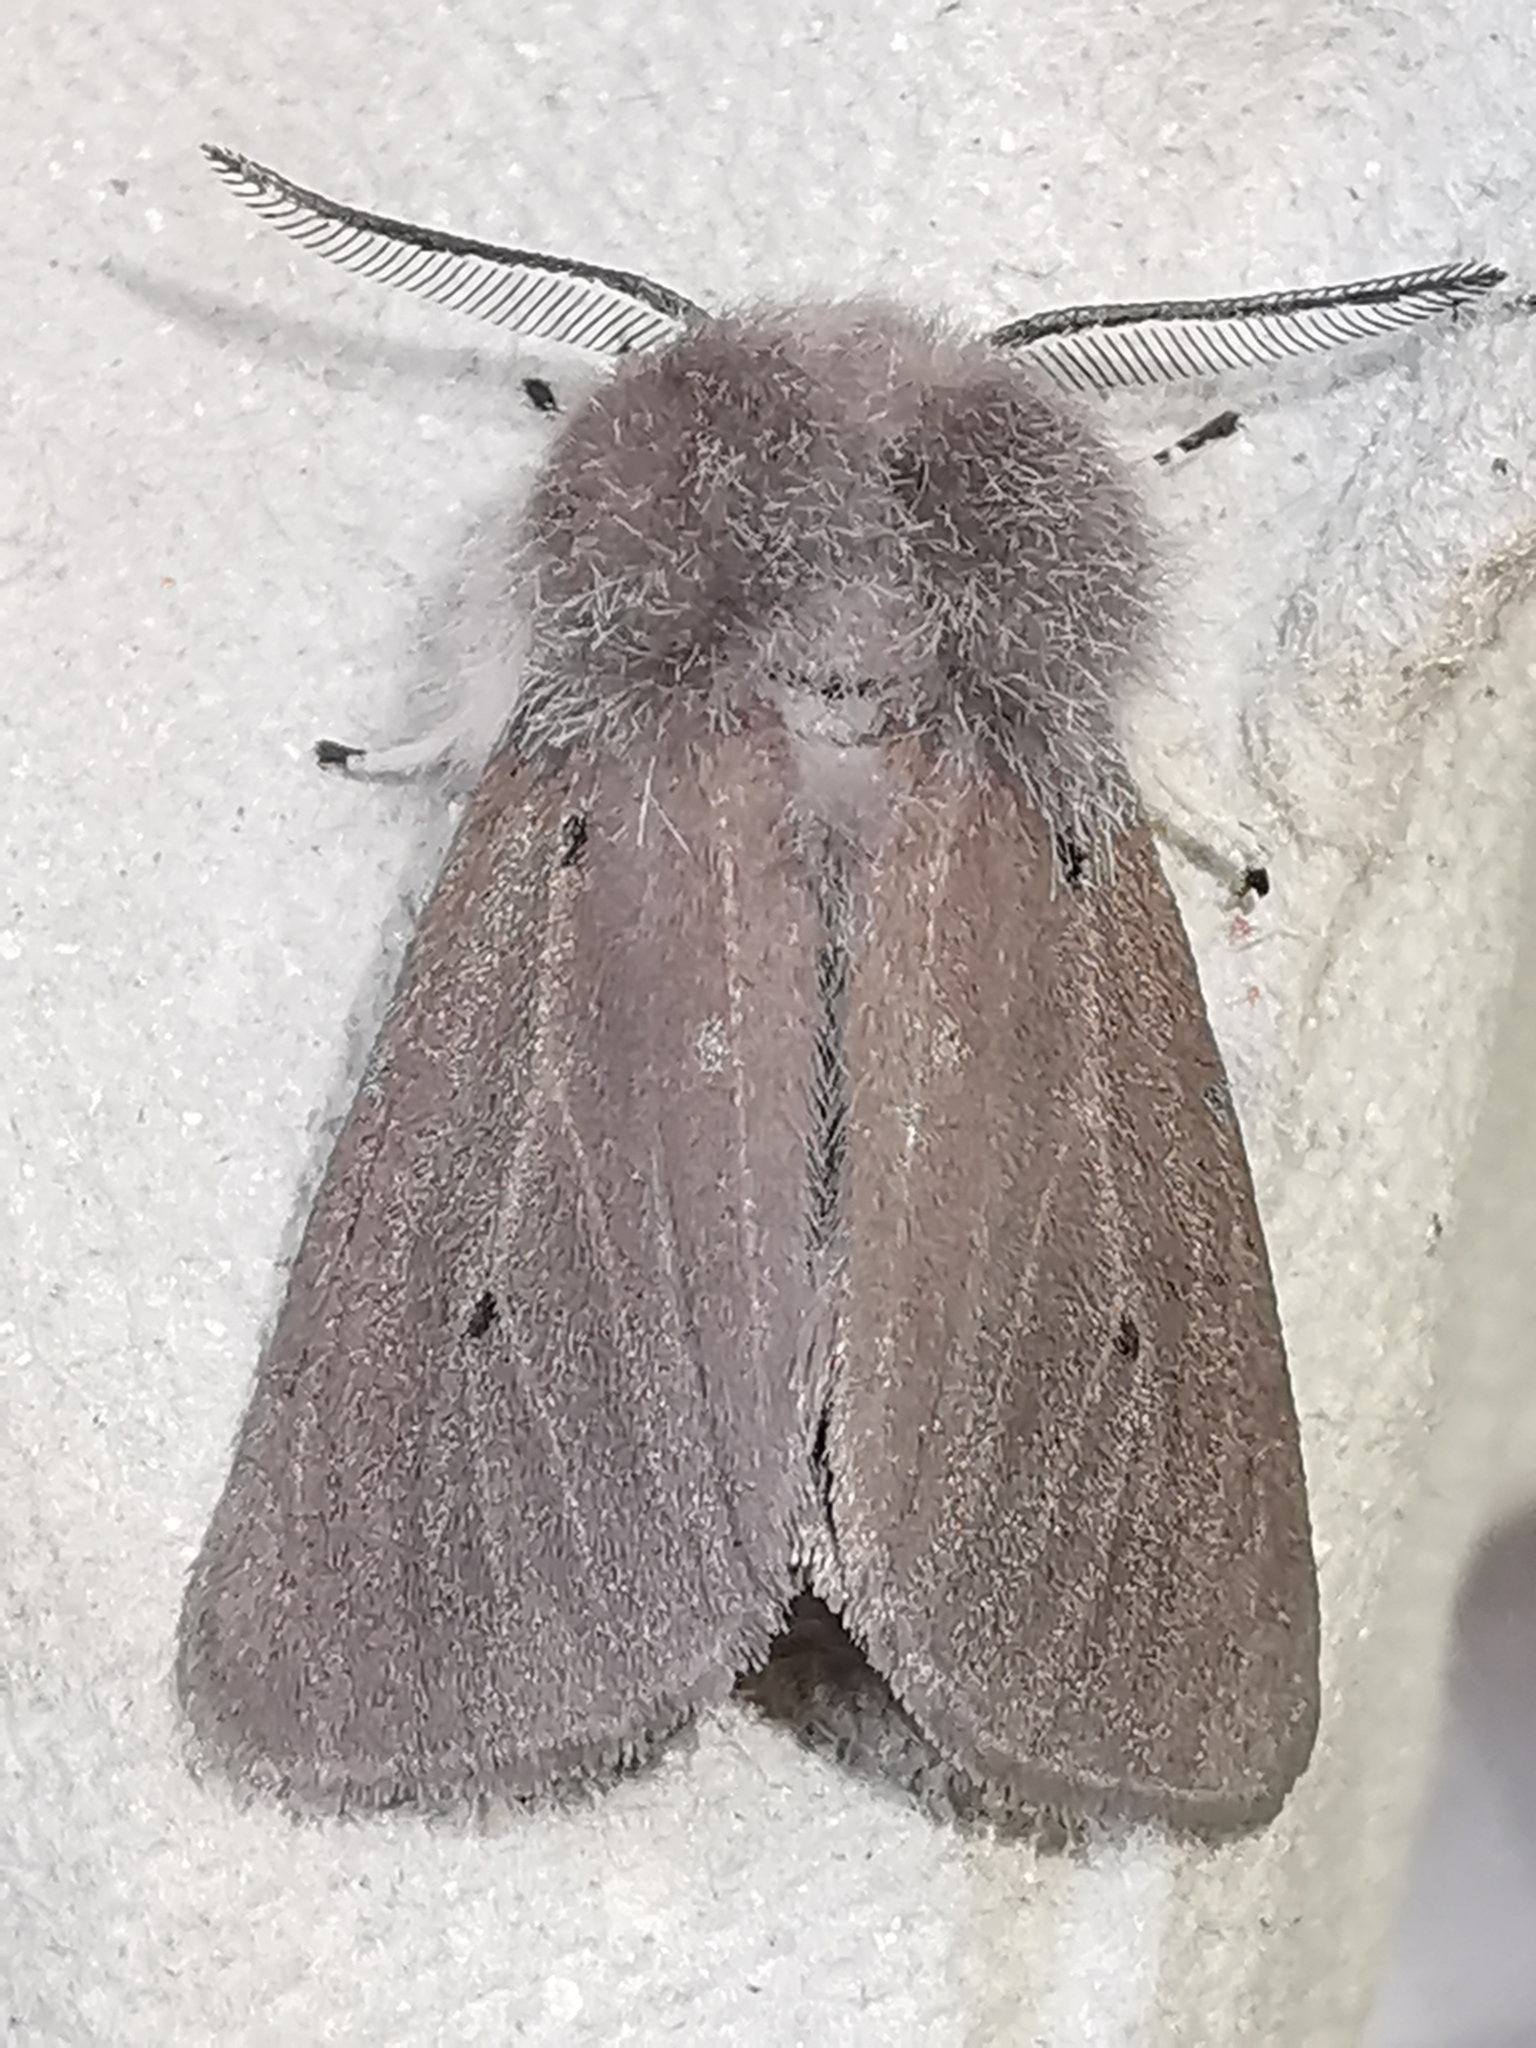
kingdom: Animalia
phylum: Arthropoda
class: Insecta
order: Lepidoptera
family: Erebidae
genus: Diaphora
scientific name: Diaphora mendica
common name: Muslin moth
